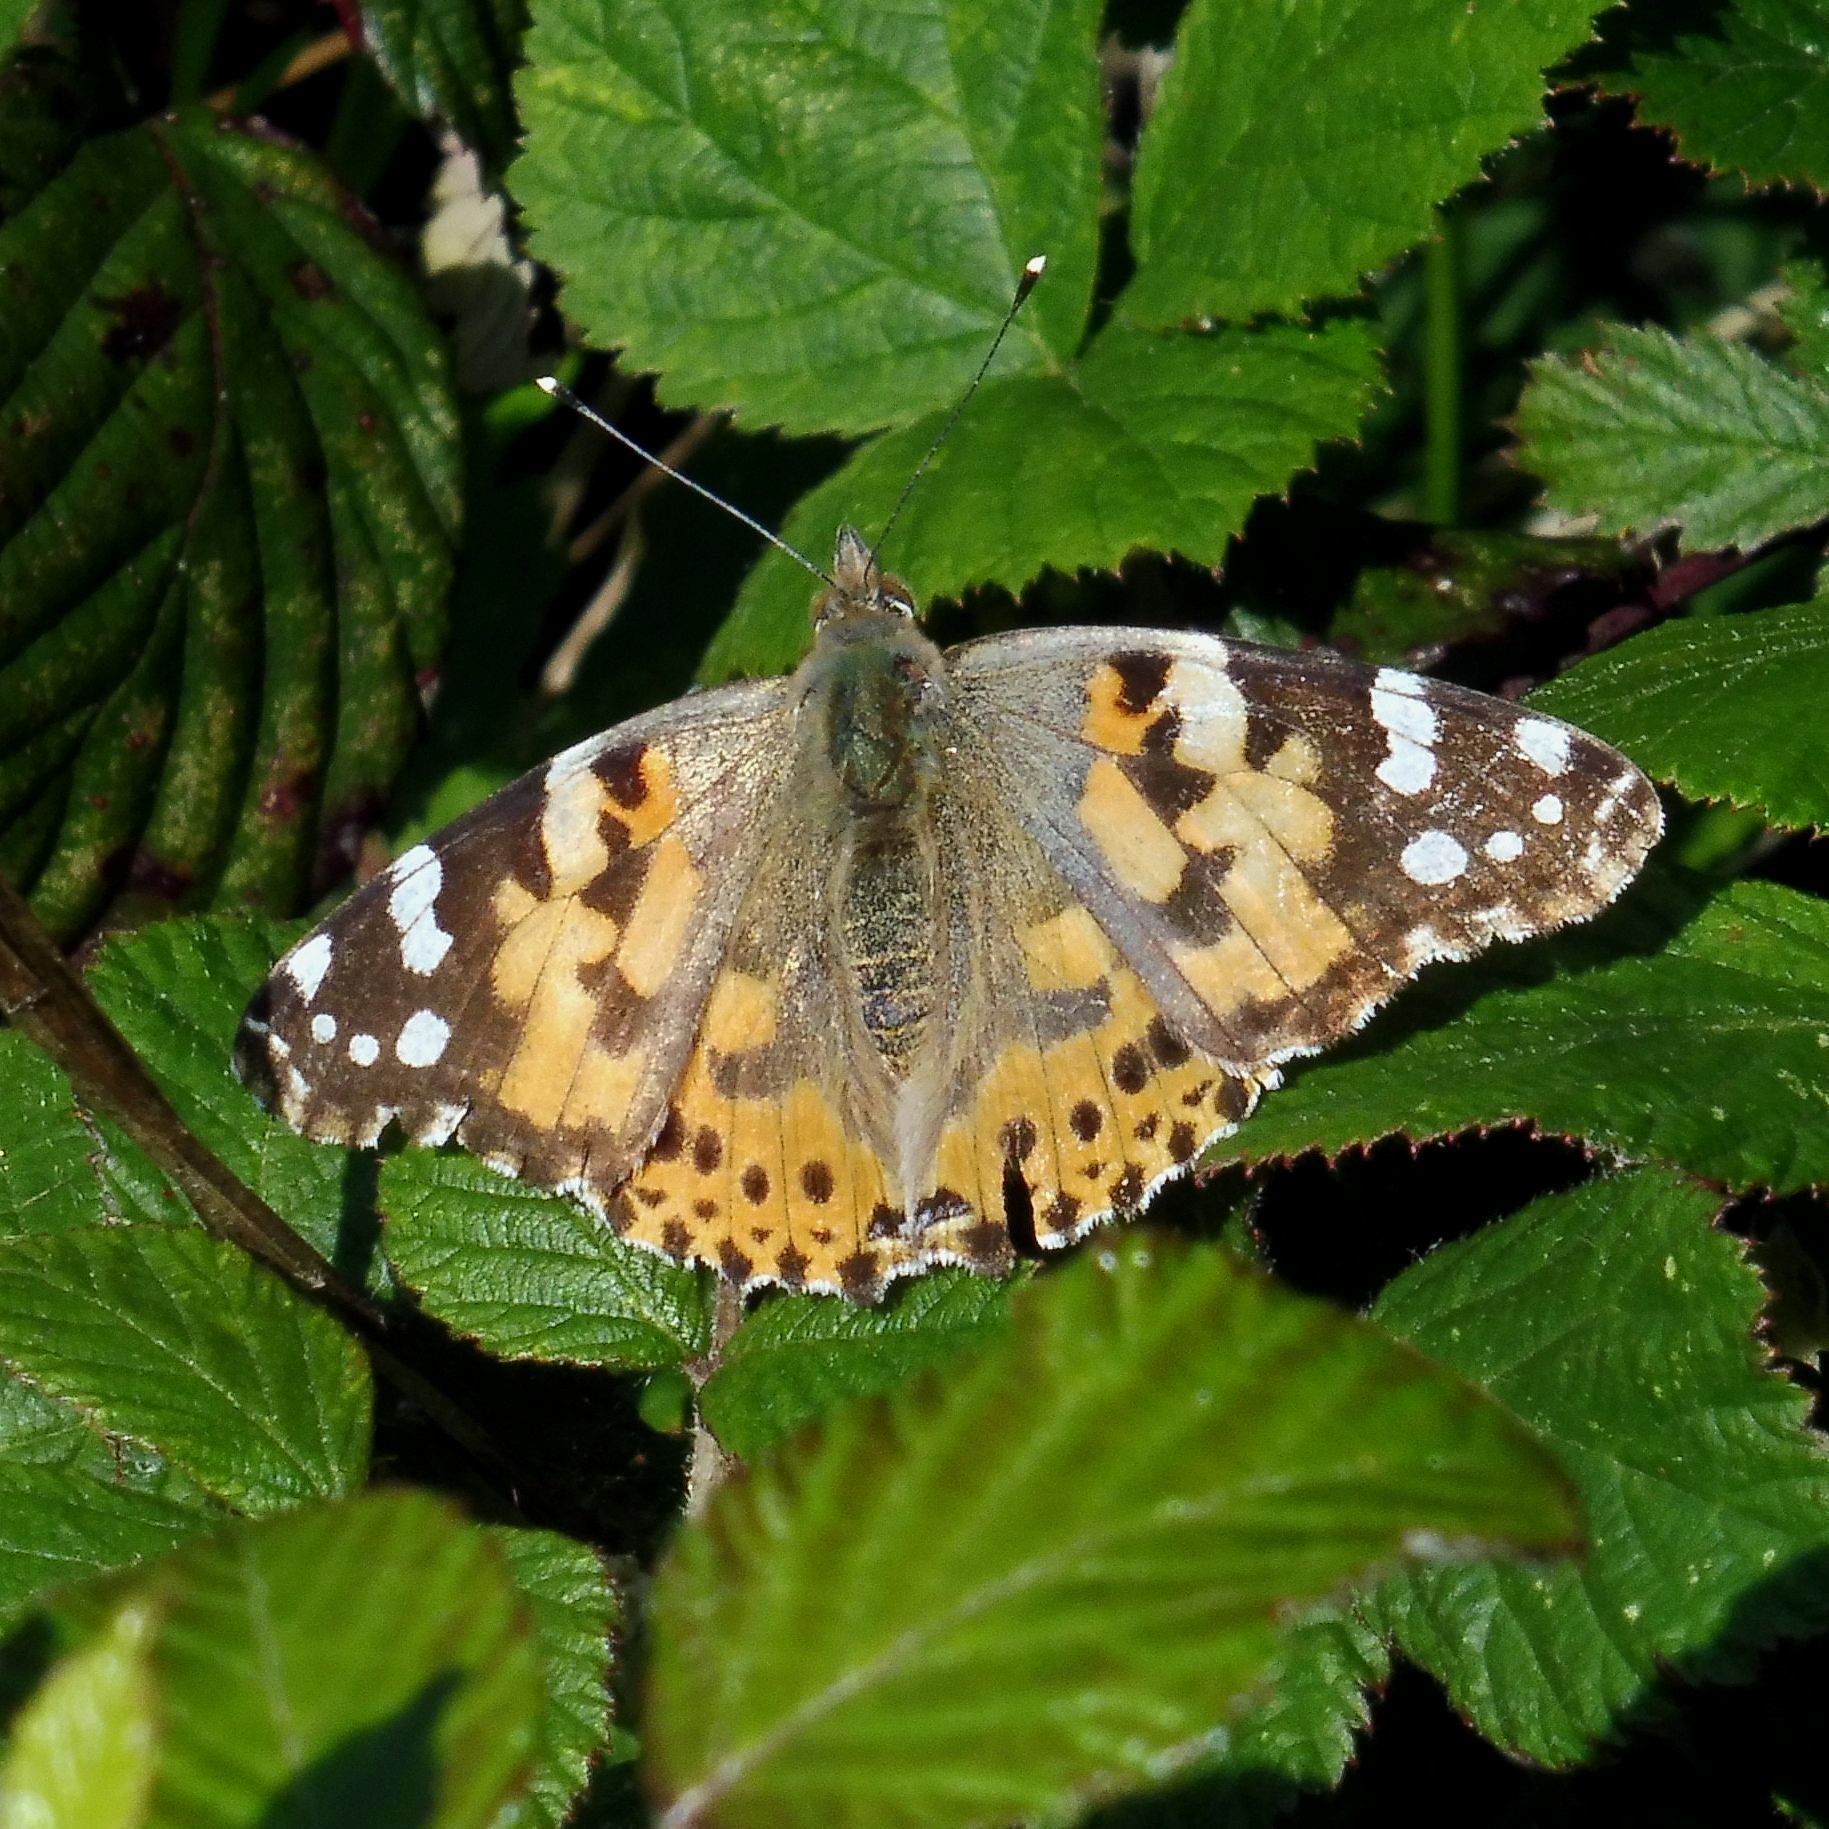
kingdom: Animalia
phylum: Arthropoda
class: Insecta
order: Lepidoptera
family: Nymphalidae
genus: Vanessa
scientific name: Vanessa cardui
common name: Painted lady
